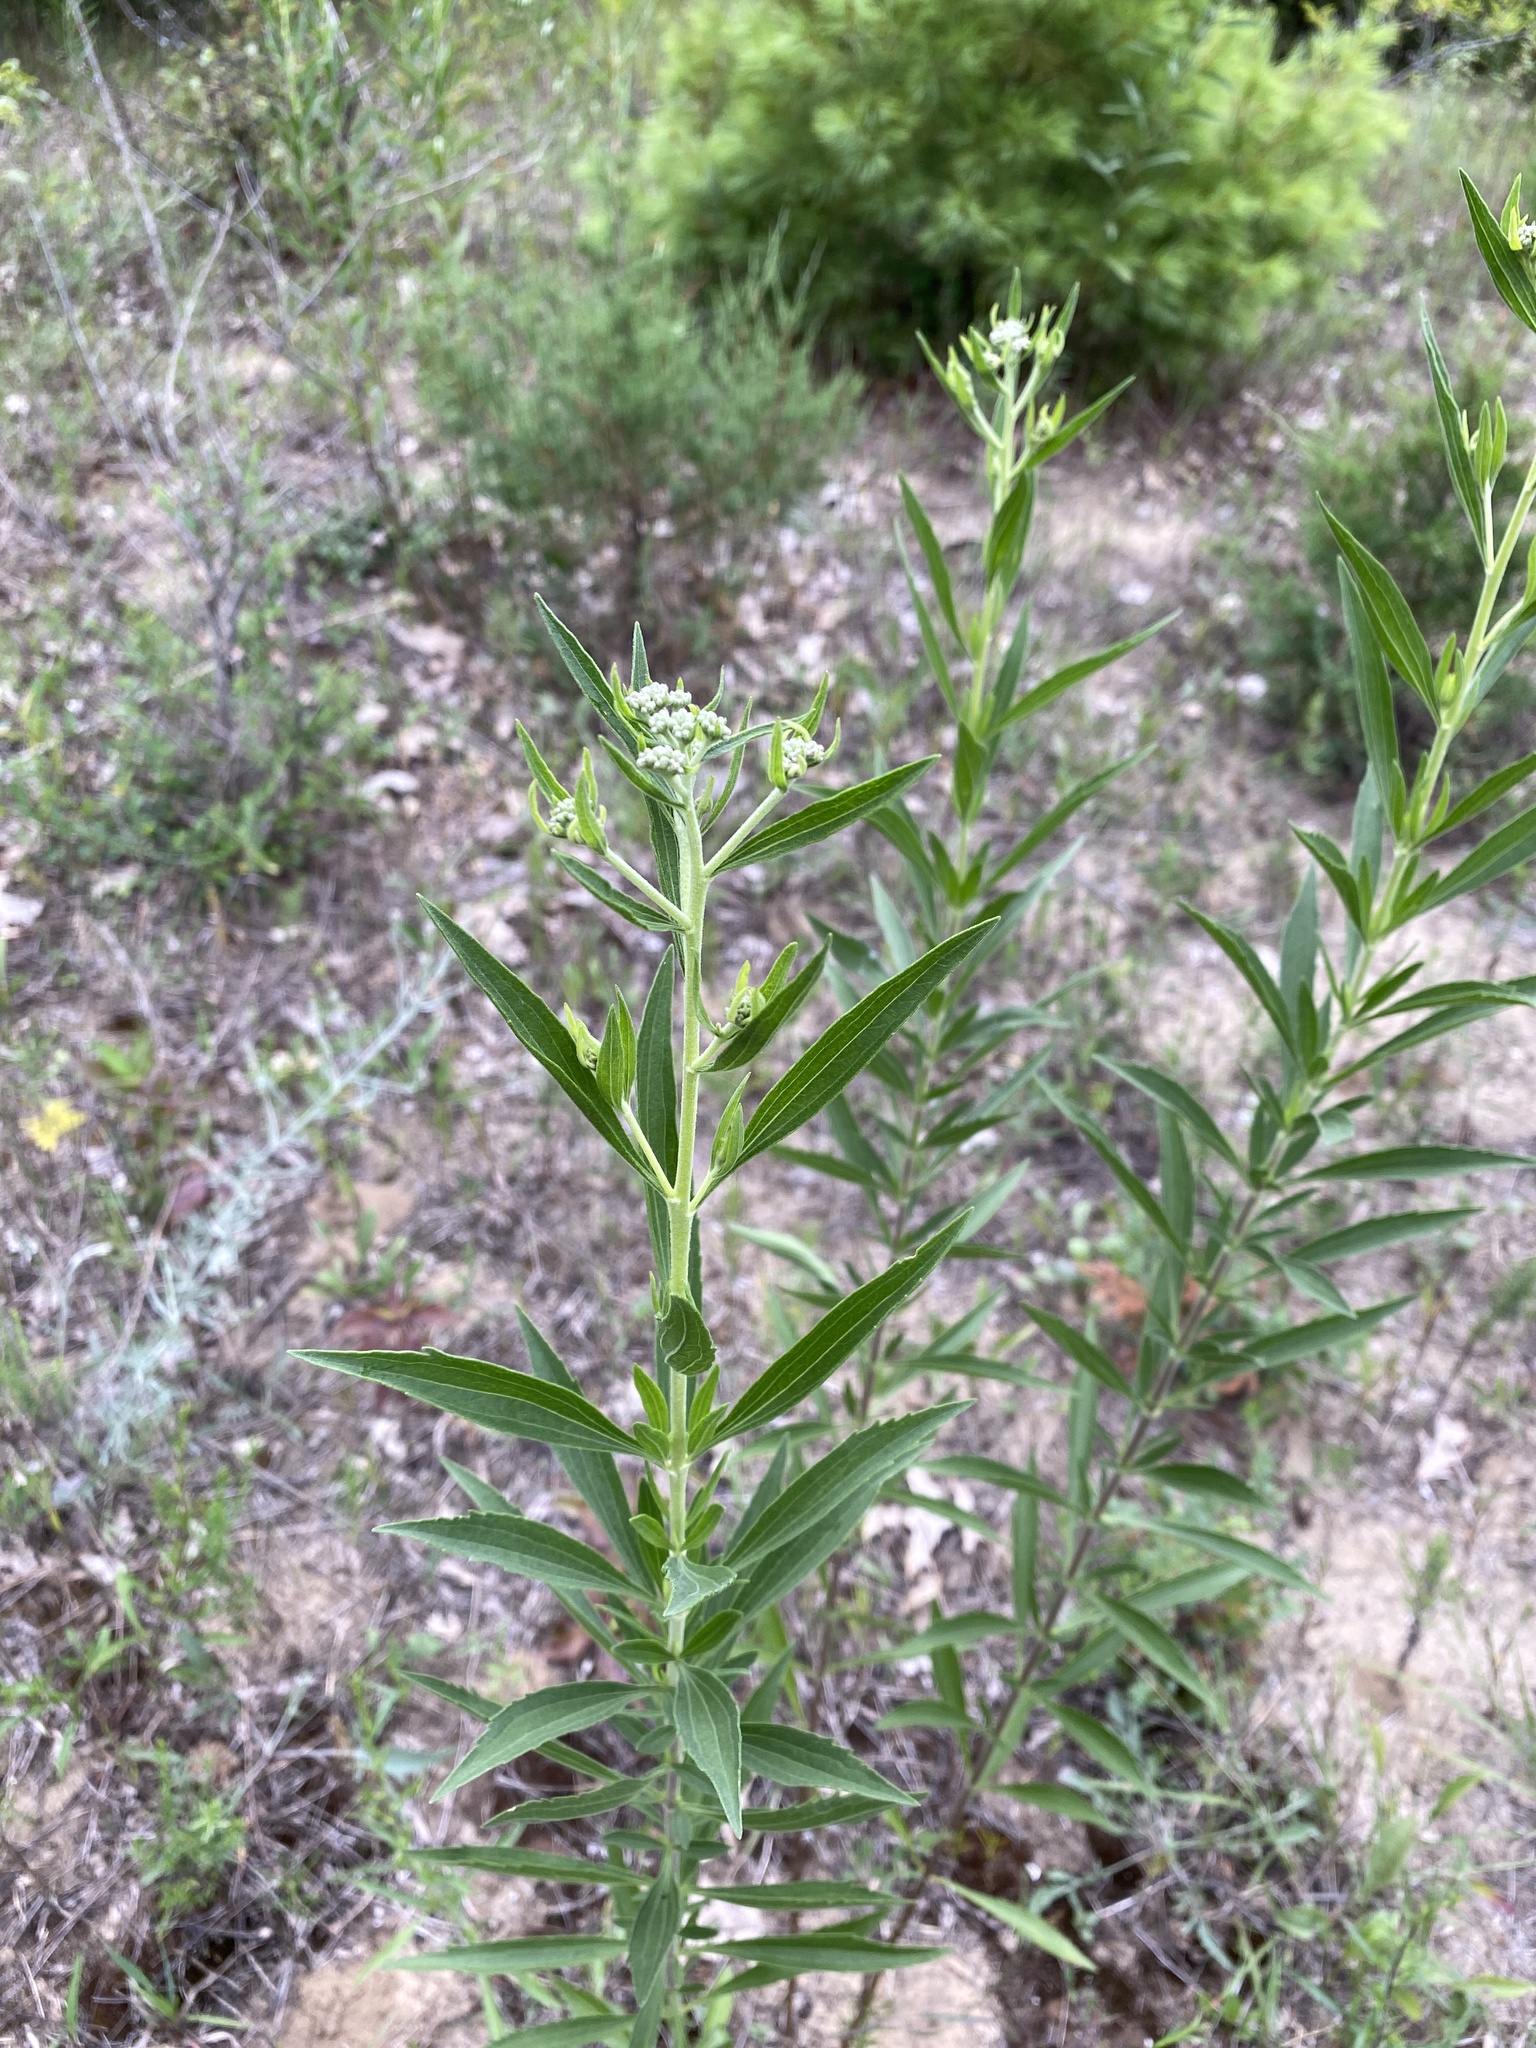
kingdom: Plantae
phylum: Tracheophyta
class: Magnoliopsida
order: Asterales
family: Asteraceae
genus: Eupatorium
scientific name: Eupatorium altissimum
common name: Tall thoroughwort
